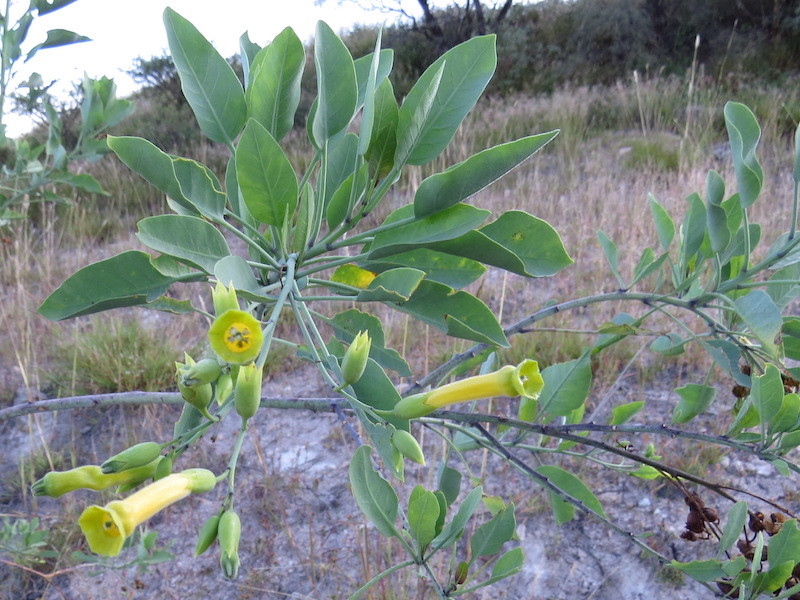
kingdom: Plantae
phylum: Tracheophyta
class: Magnoliopsida
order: Solanales
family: Solanaceae
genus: Nicotiana
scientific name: Nicotiana glauca
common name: Tree tobacco
